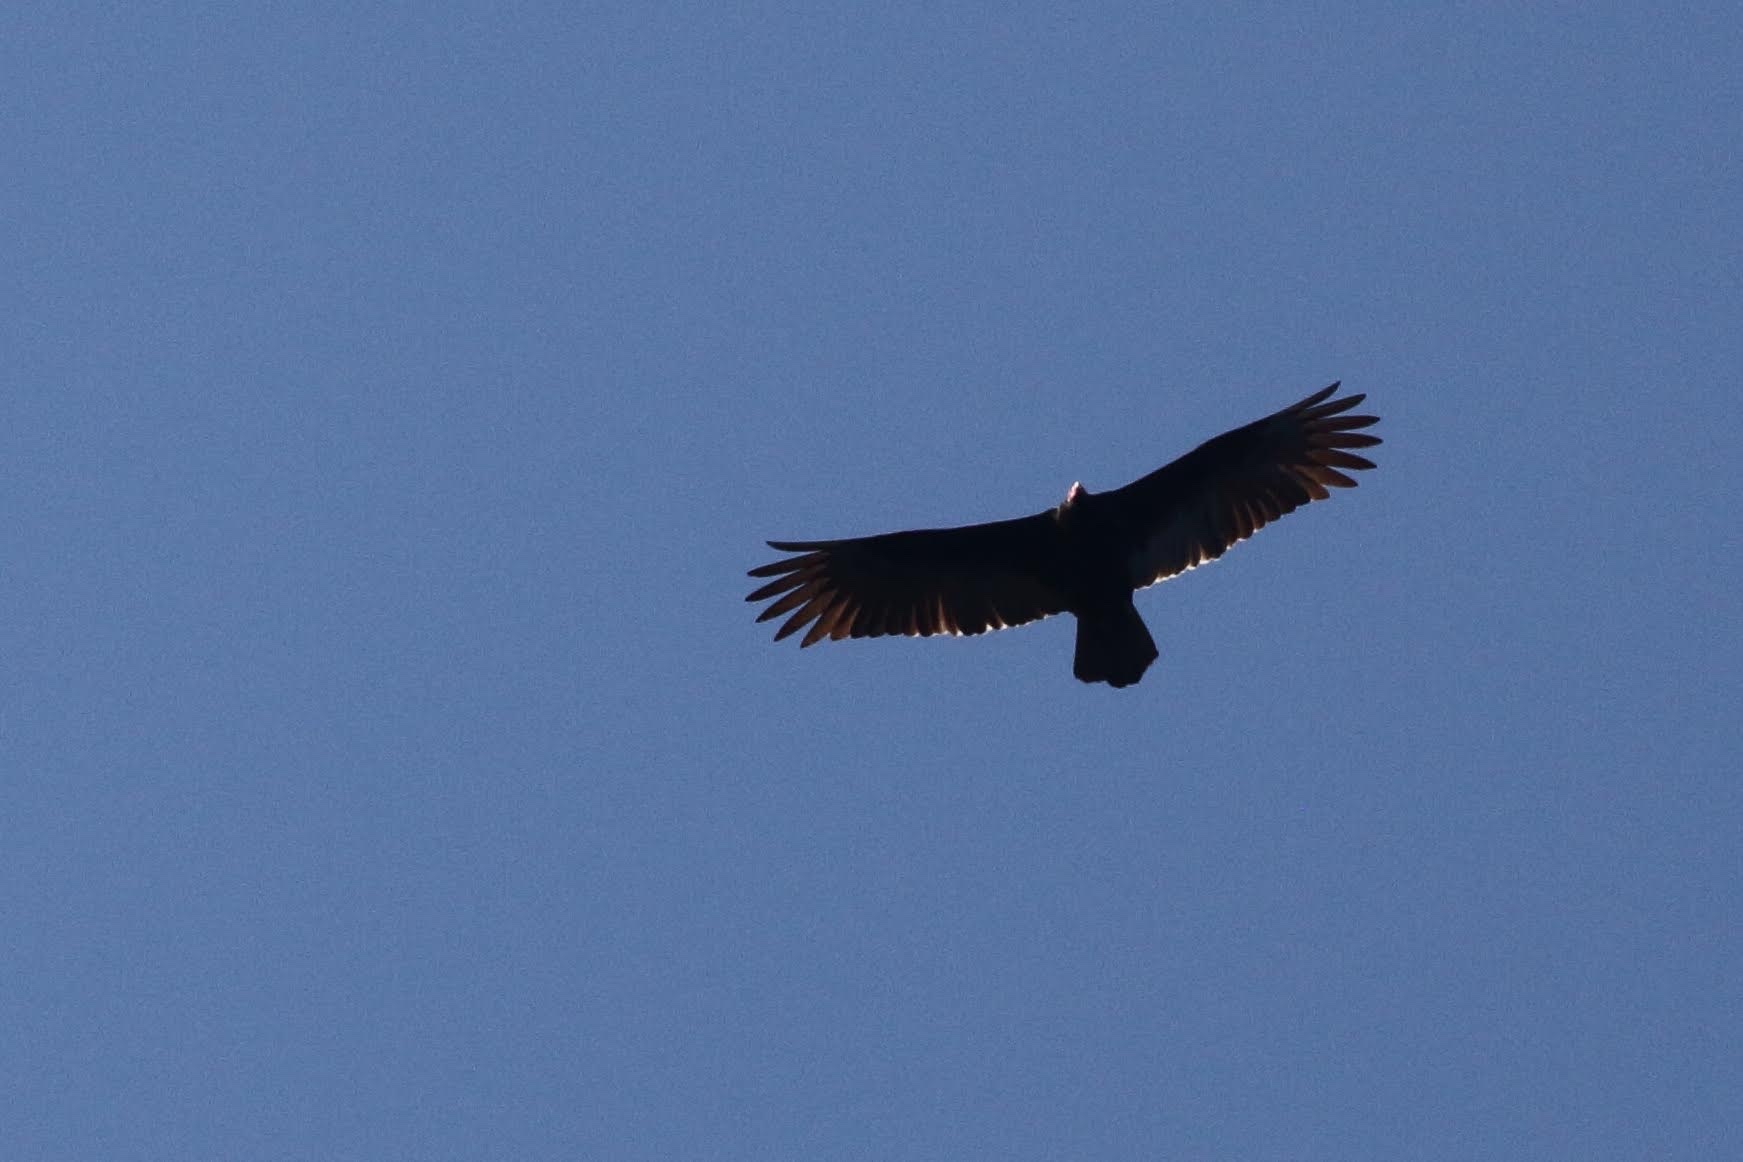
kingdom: Animalia
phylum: Chordata
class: Aves
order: Accipitriformes
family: Cathartidae
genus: Cathartes
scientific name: Cathartes aura
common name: Turkey vulture
